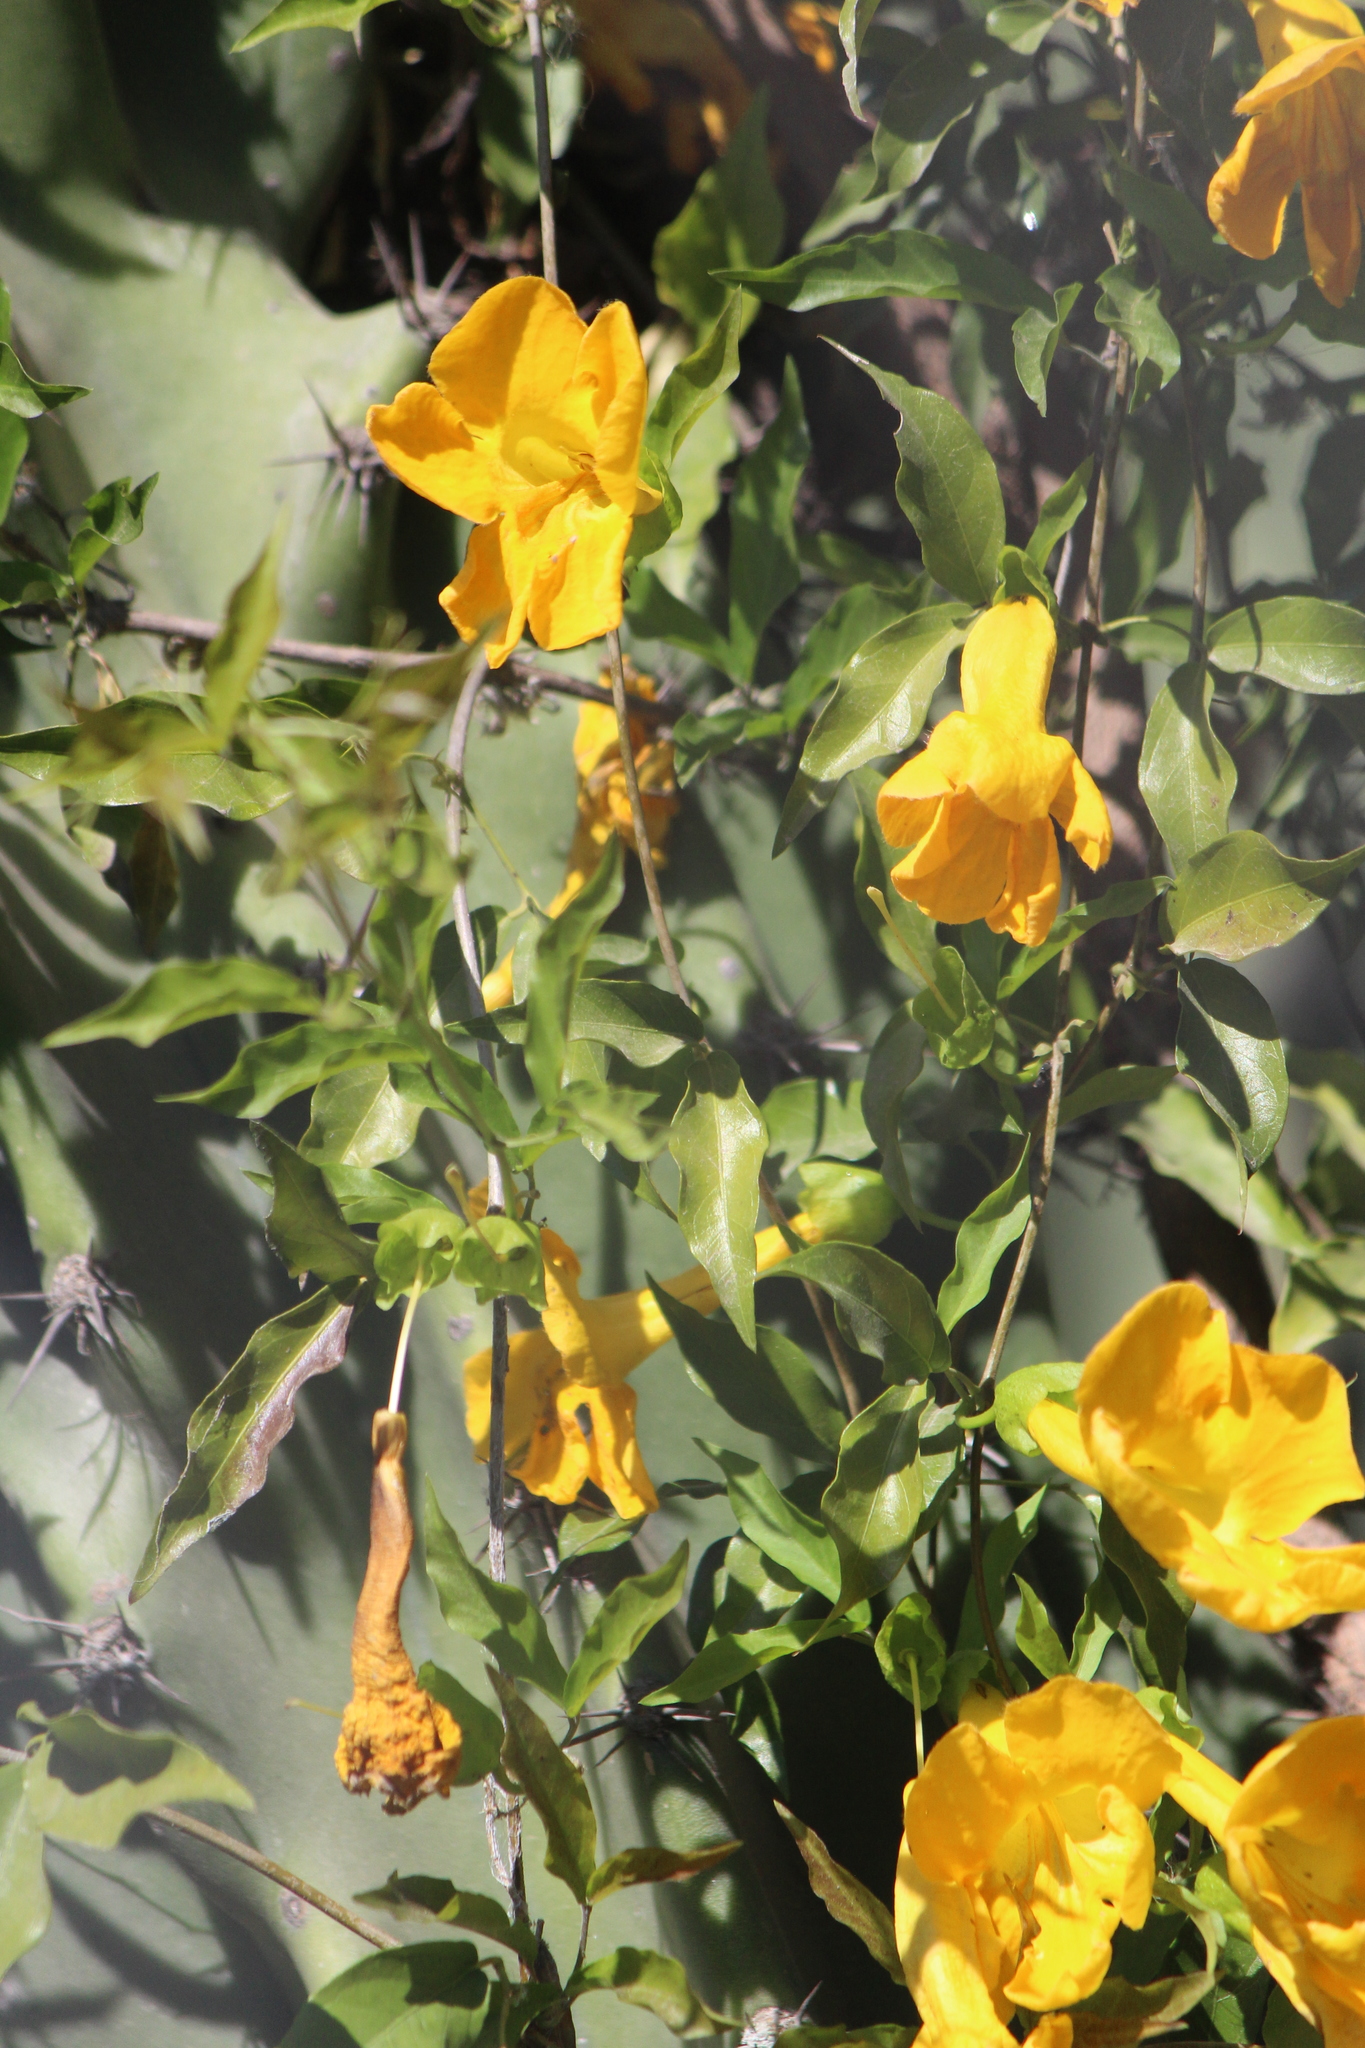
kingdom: Plantae
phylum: Tracheophyta
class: Magnoliopsida
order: Lamiales
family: Bignoniaceae
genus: Dolichandra
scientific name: Dolichandra unguis-cati
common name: Catclaw vine
